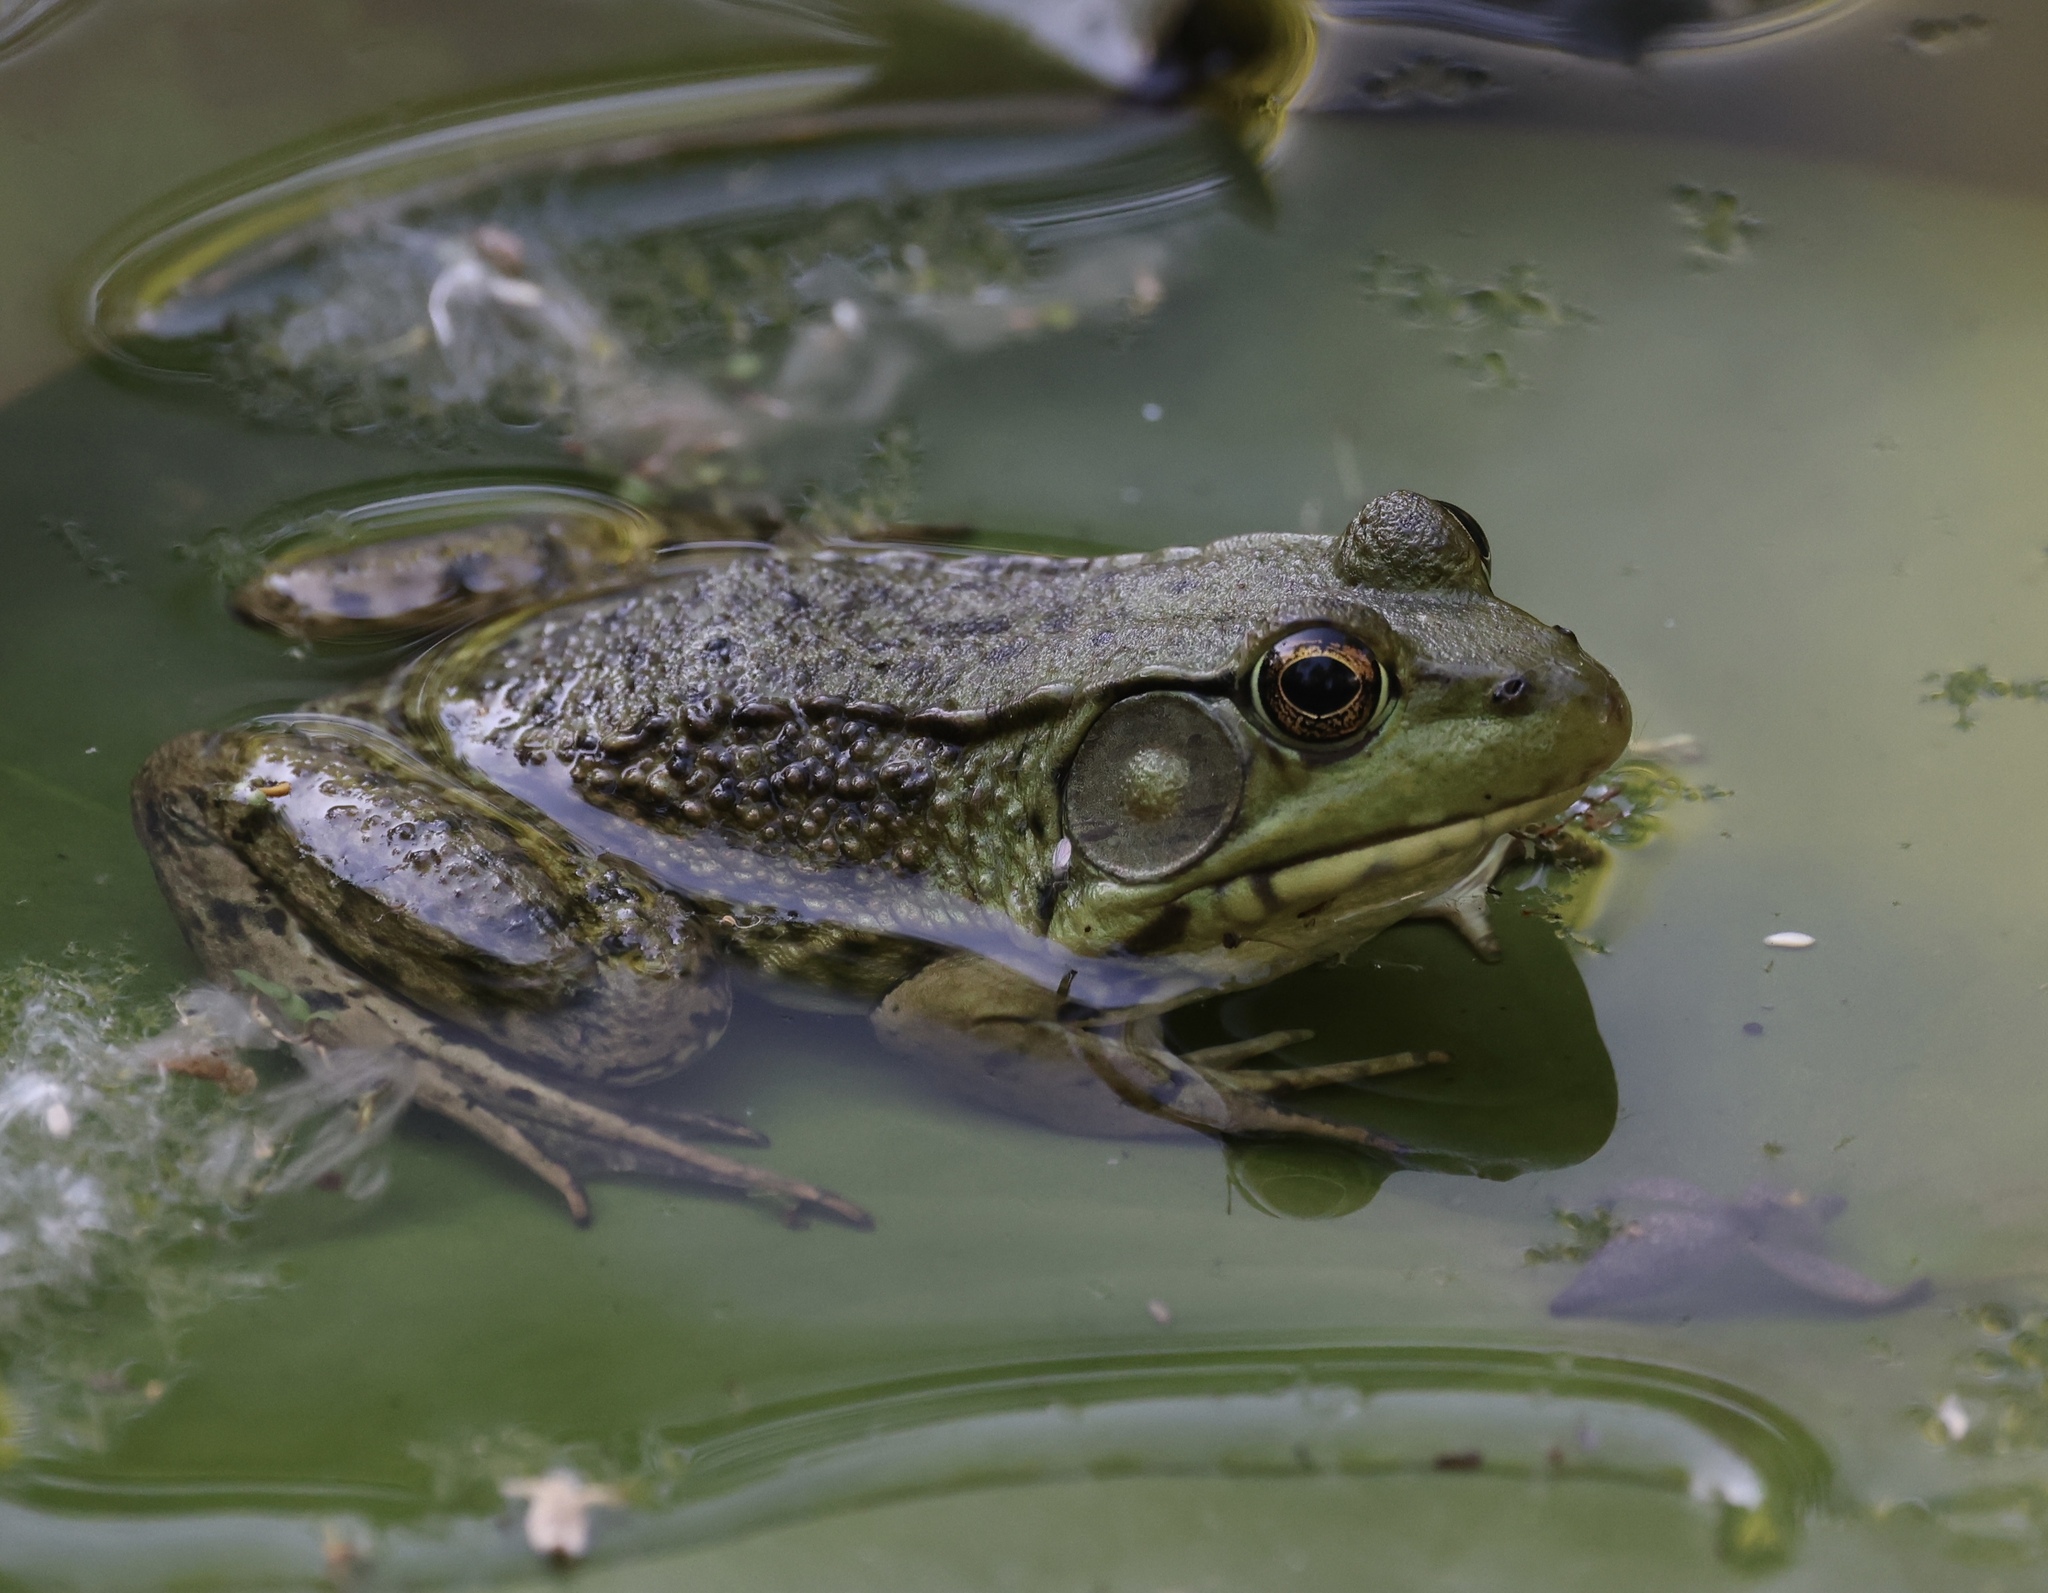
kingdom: Animalia
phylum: Chordata
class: Amphibia
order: Anura
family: Ranidae
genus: Lithobates
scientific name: Lithobates clamitans
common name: Green frog
